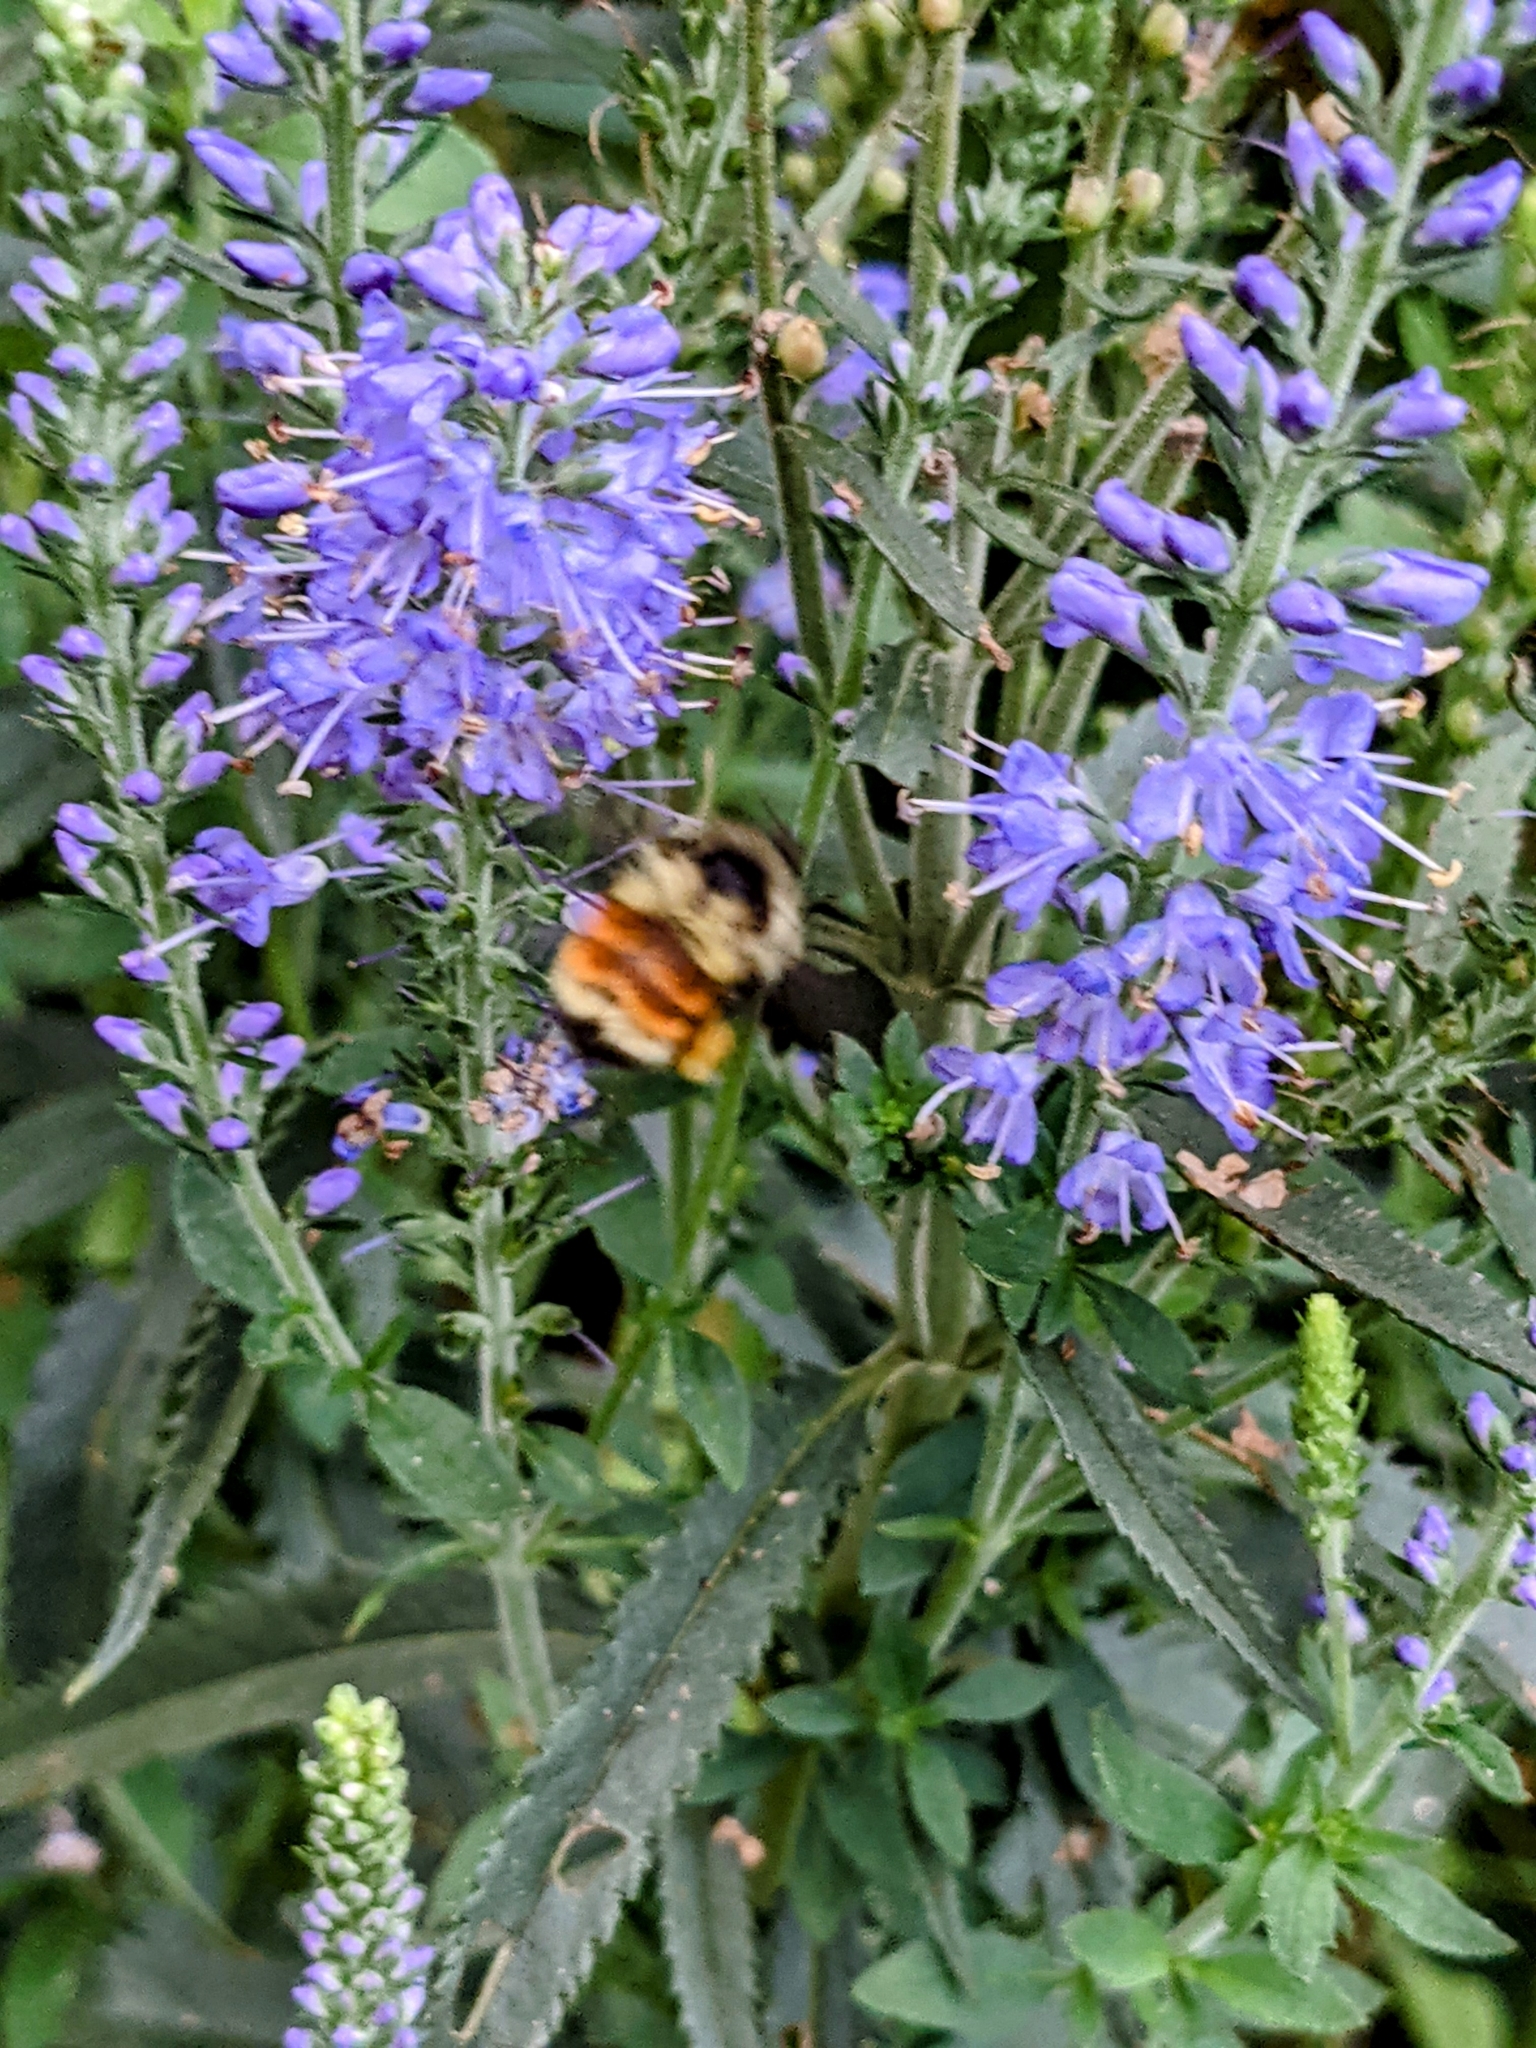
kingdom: Animalia
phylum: Arthropoda
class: Insecta
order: Hymenoptera
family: Apidae
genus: Bombus
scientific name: Bombus ternarius
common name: Tri-colored bumble bee
